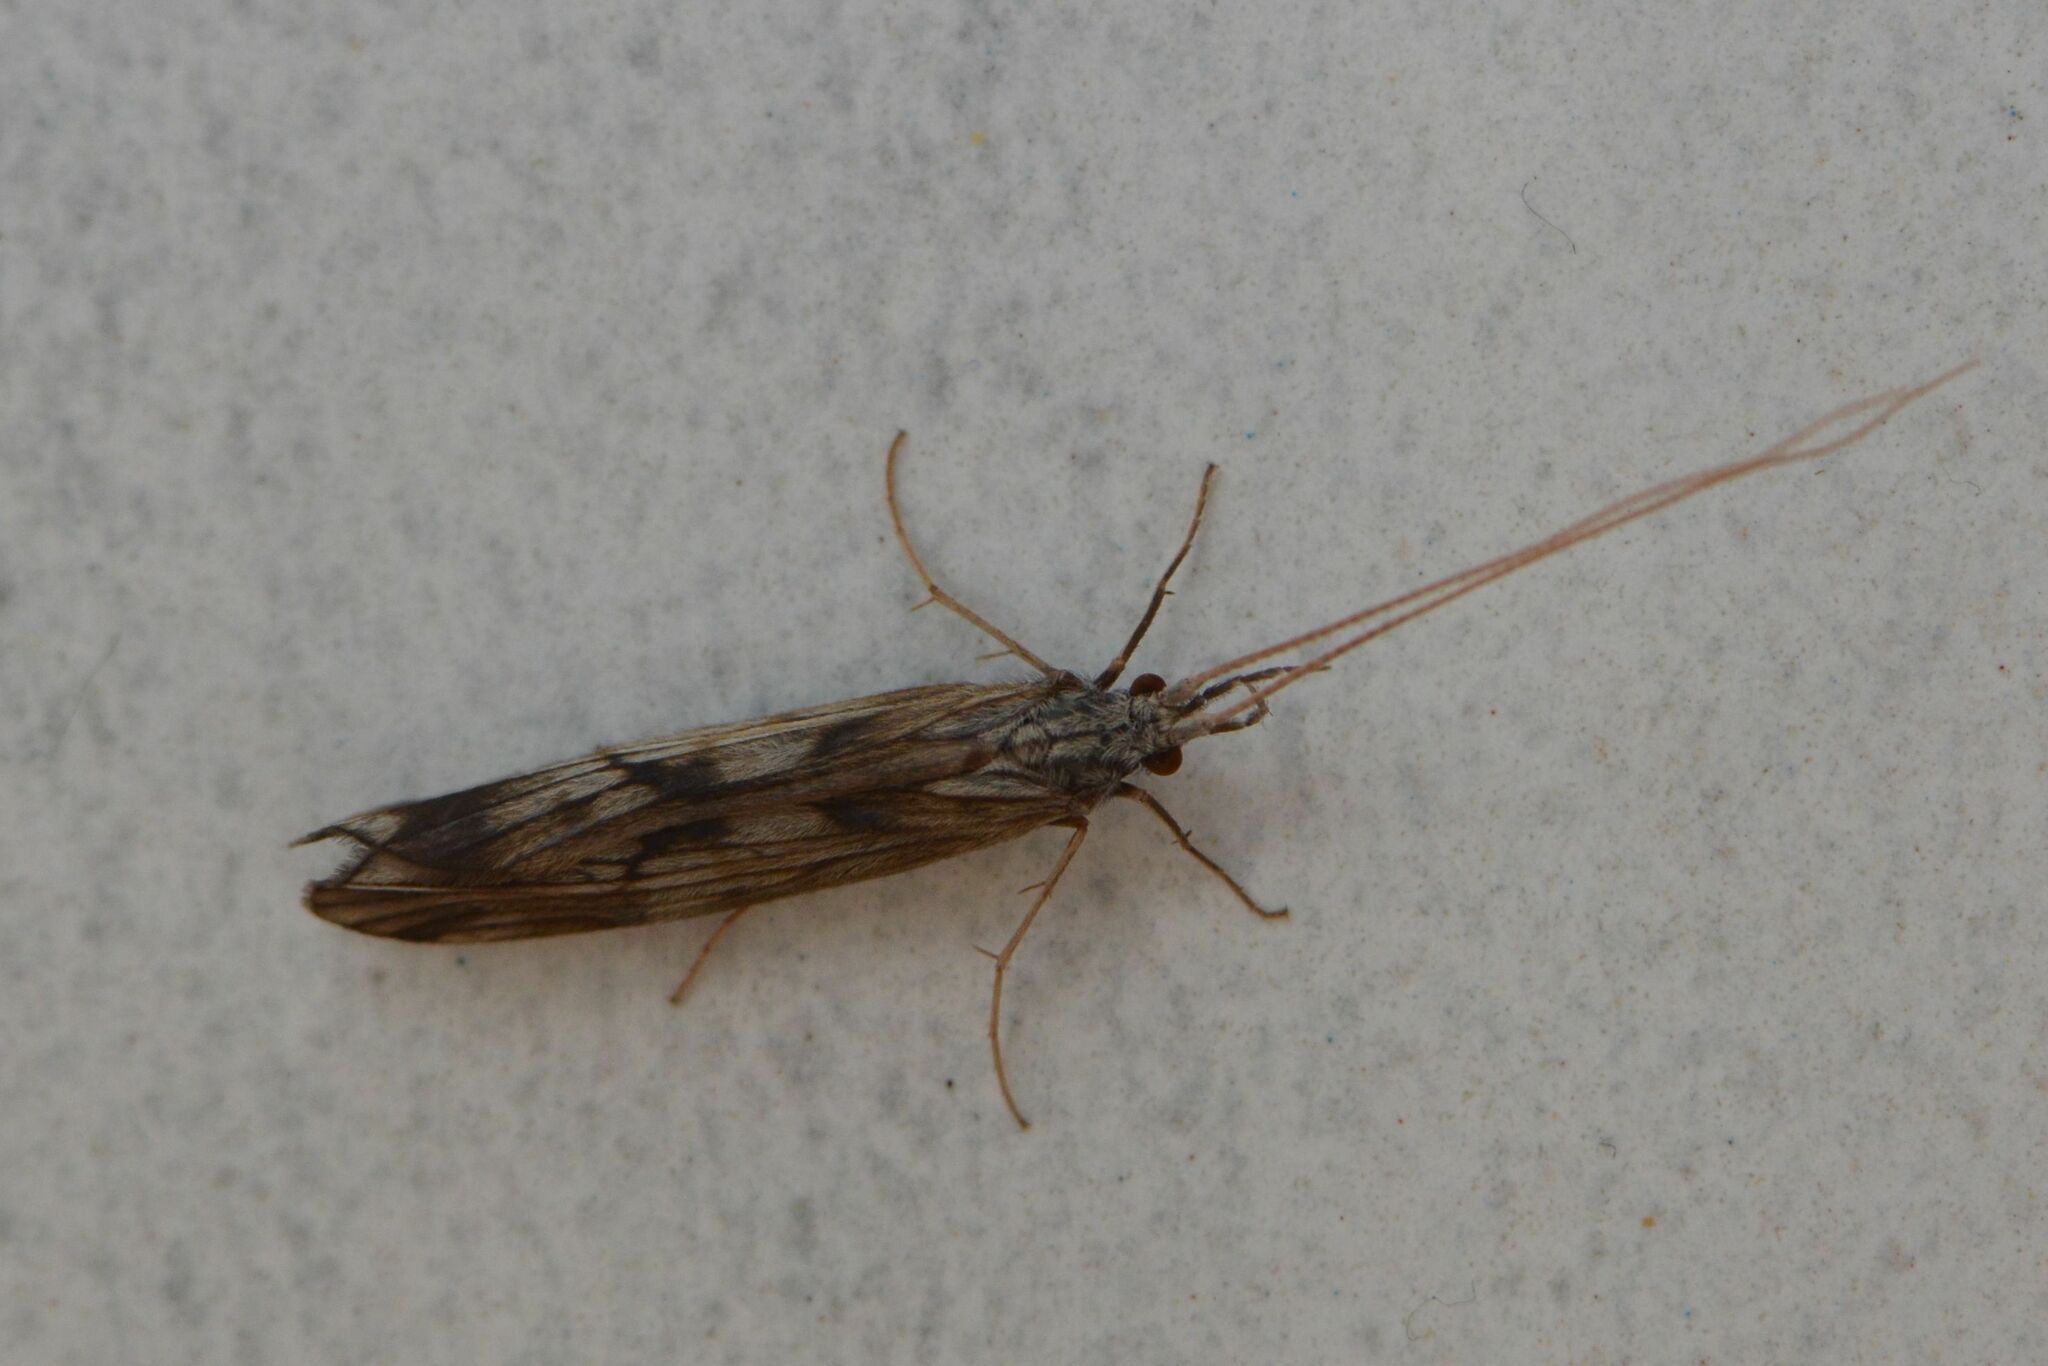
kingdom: Animalia
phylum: Arthropoda
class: Insecta
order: Trichoptera
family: Odontoceridae
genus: Odontocerum
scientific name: Odontocerum albicorne
